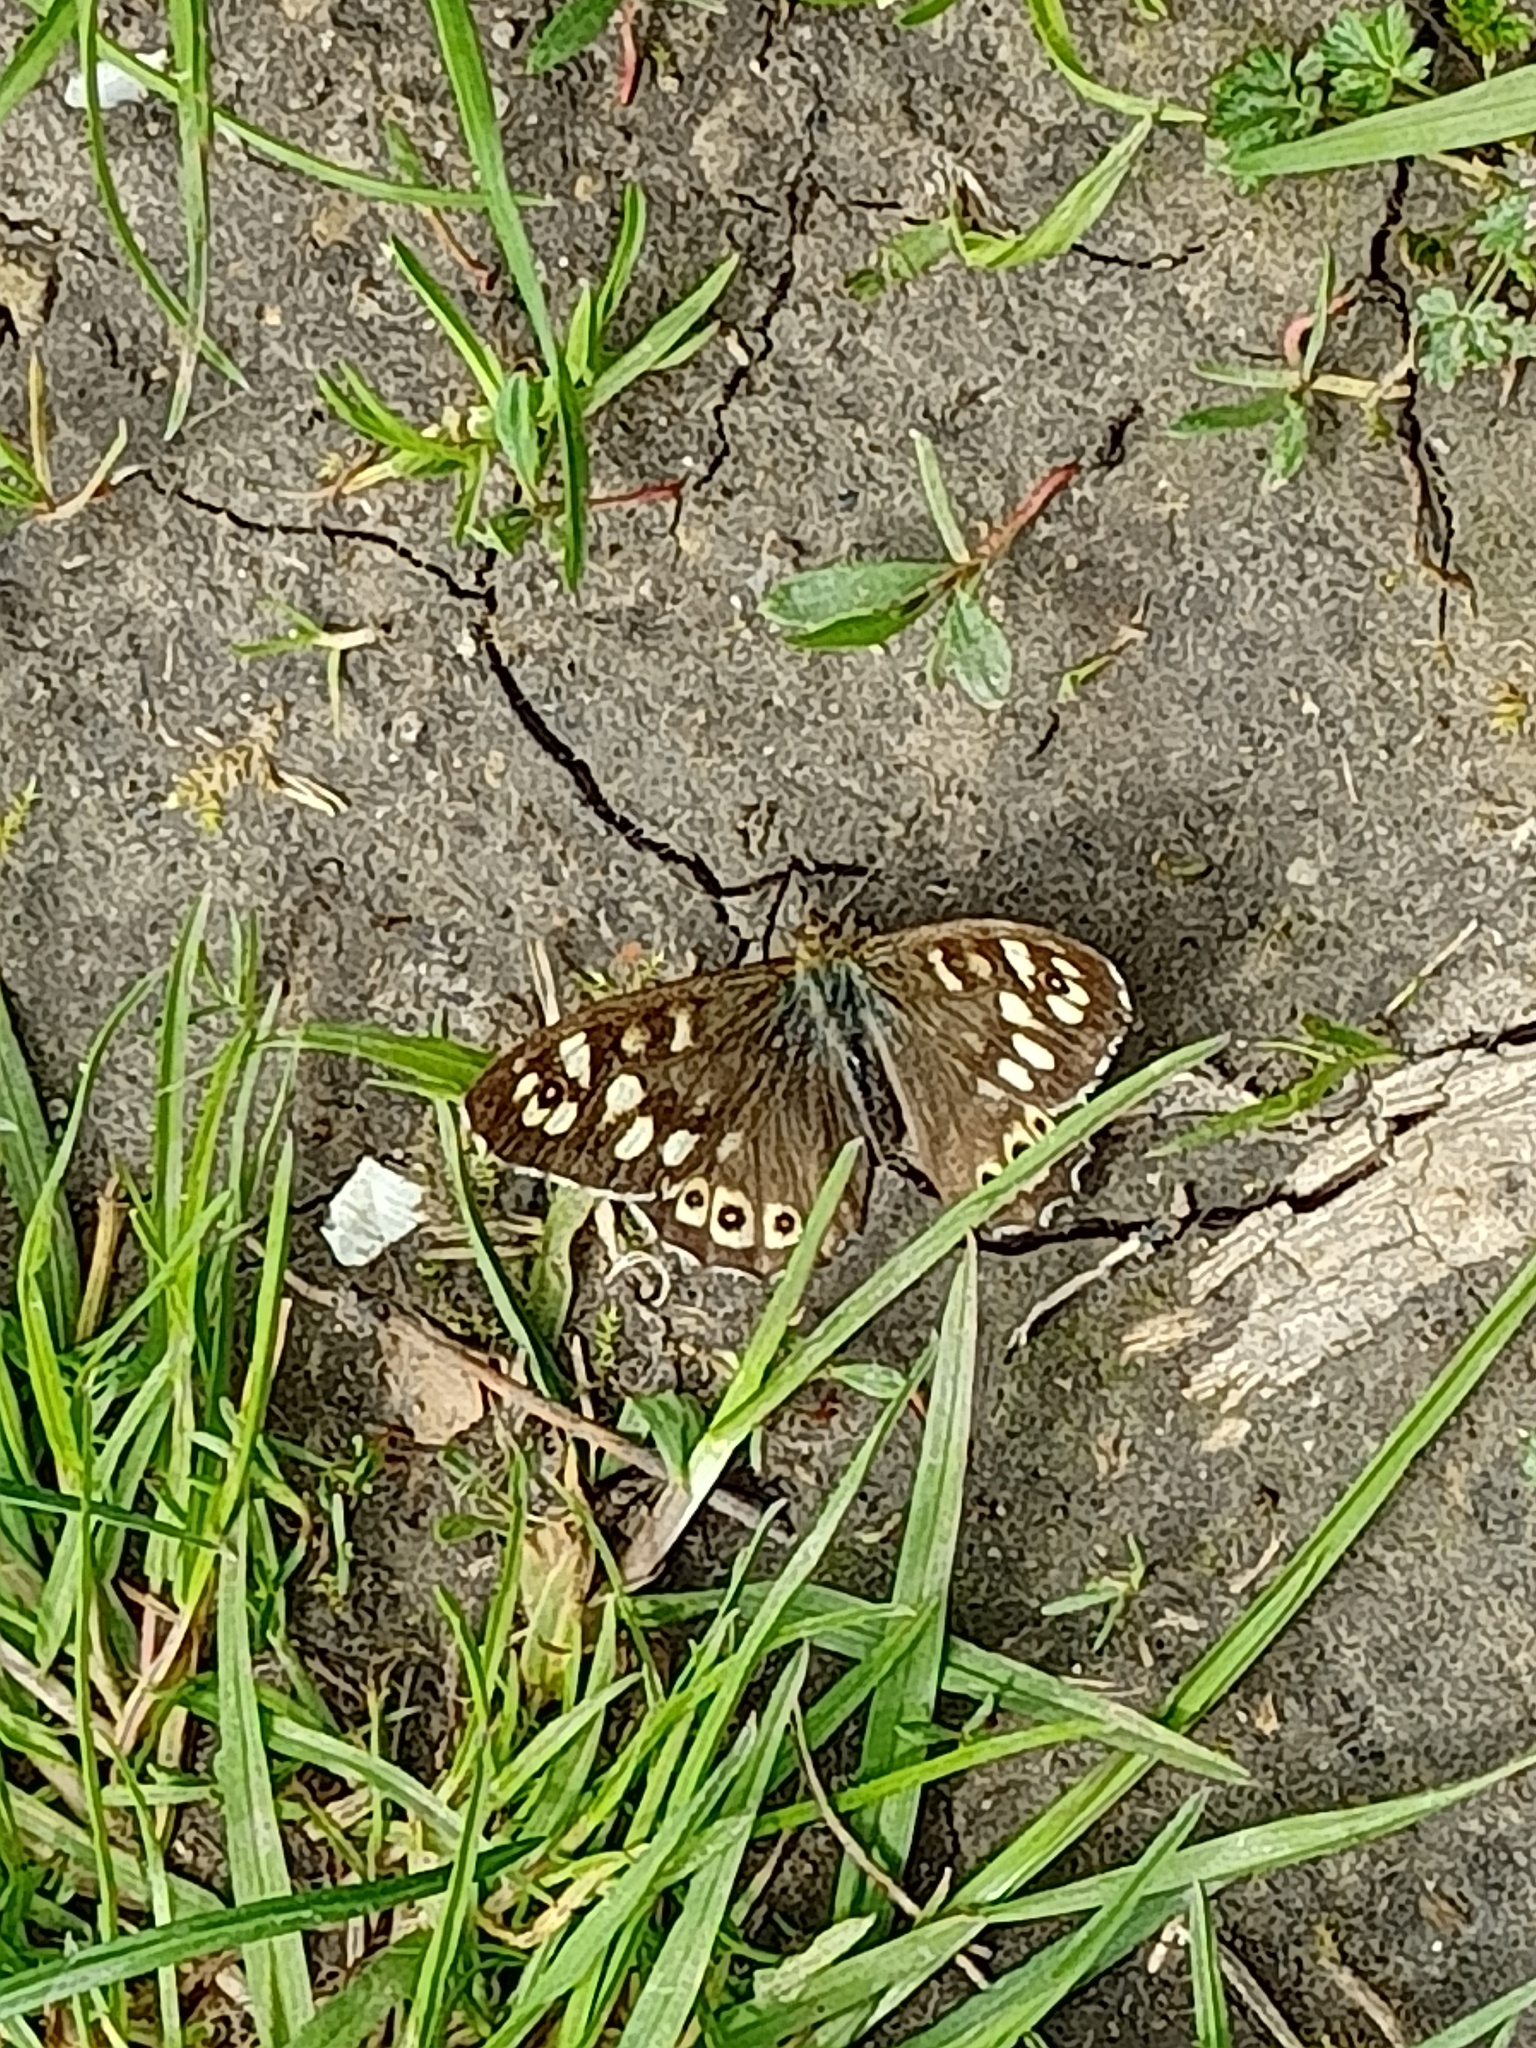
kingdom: Animalia
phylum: Arthropoda
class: Insecta
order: Lepidoptera
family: Nymphalidae
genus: Pararge
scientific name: Pararge aegeria
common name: Speckled wood
